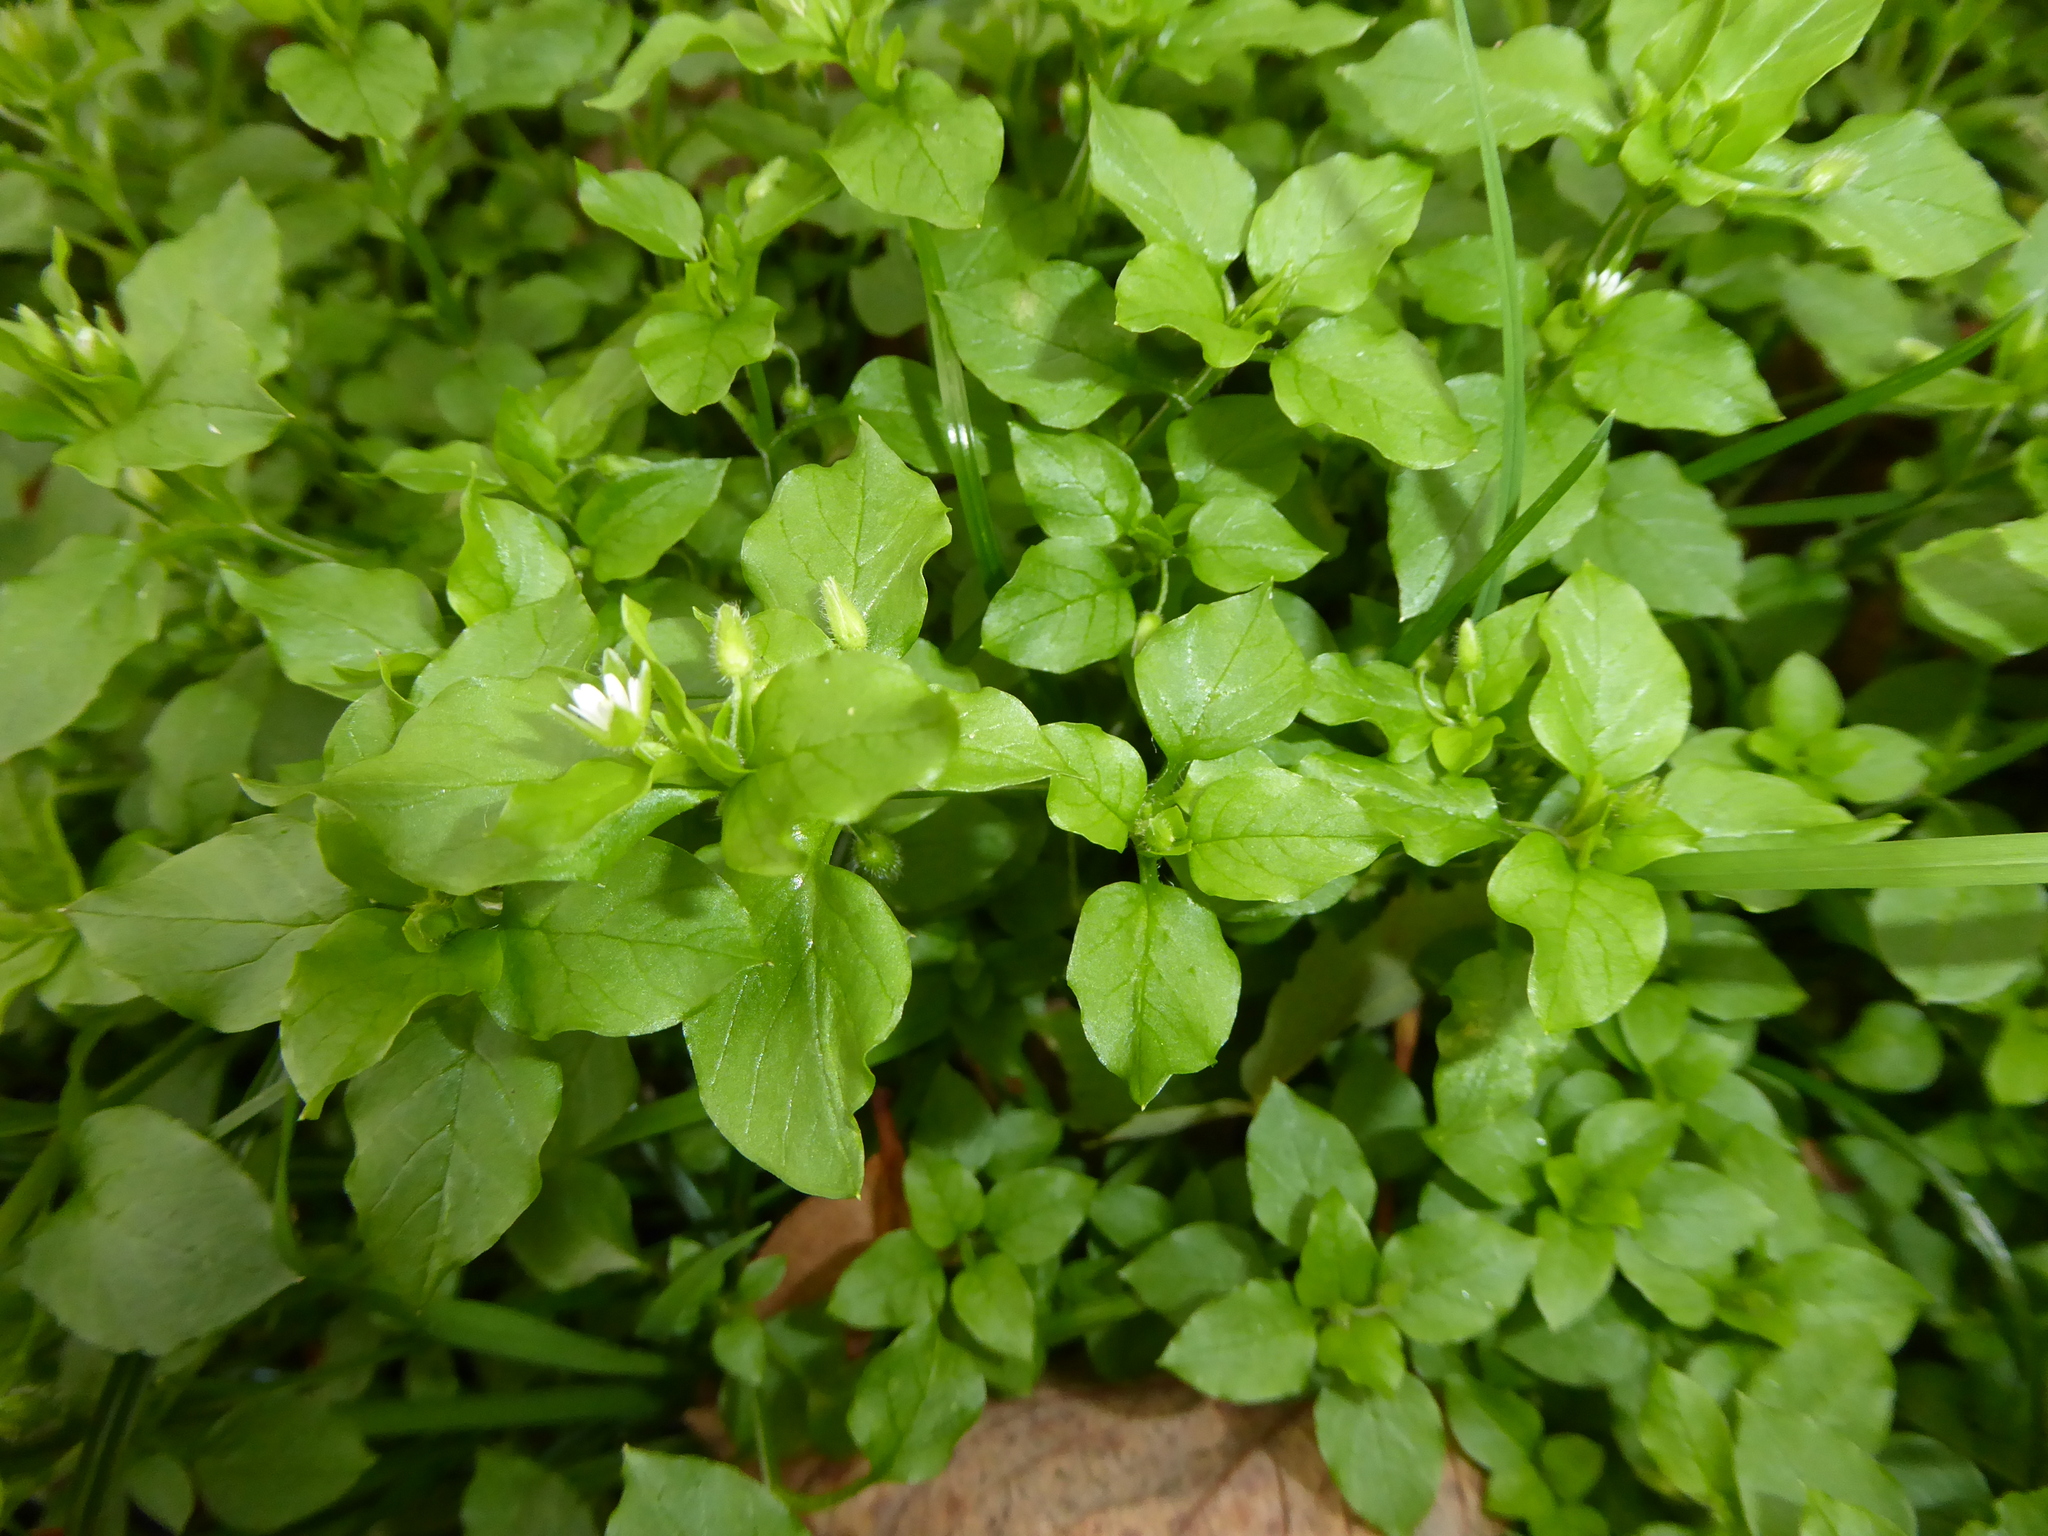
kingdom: Plantae
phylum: Tracheophyta
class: Magnoliopsida
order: Caryophyllales
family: Caryophyllaceae
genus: Stellaria
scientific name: Stellaria media
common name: Common chickweed
